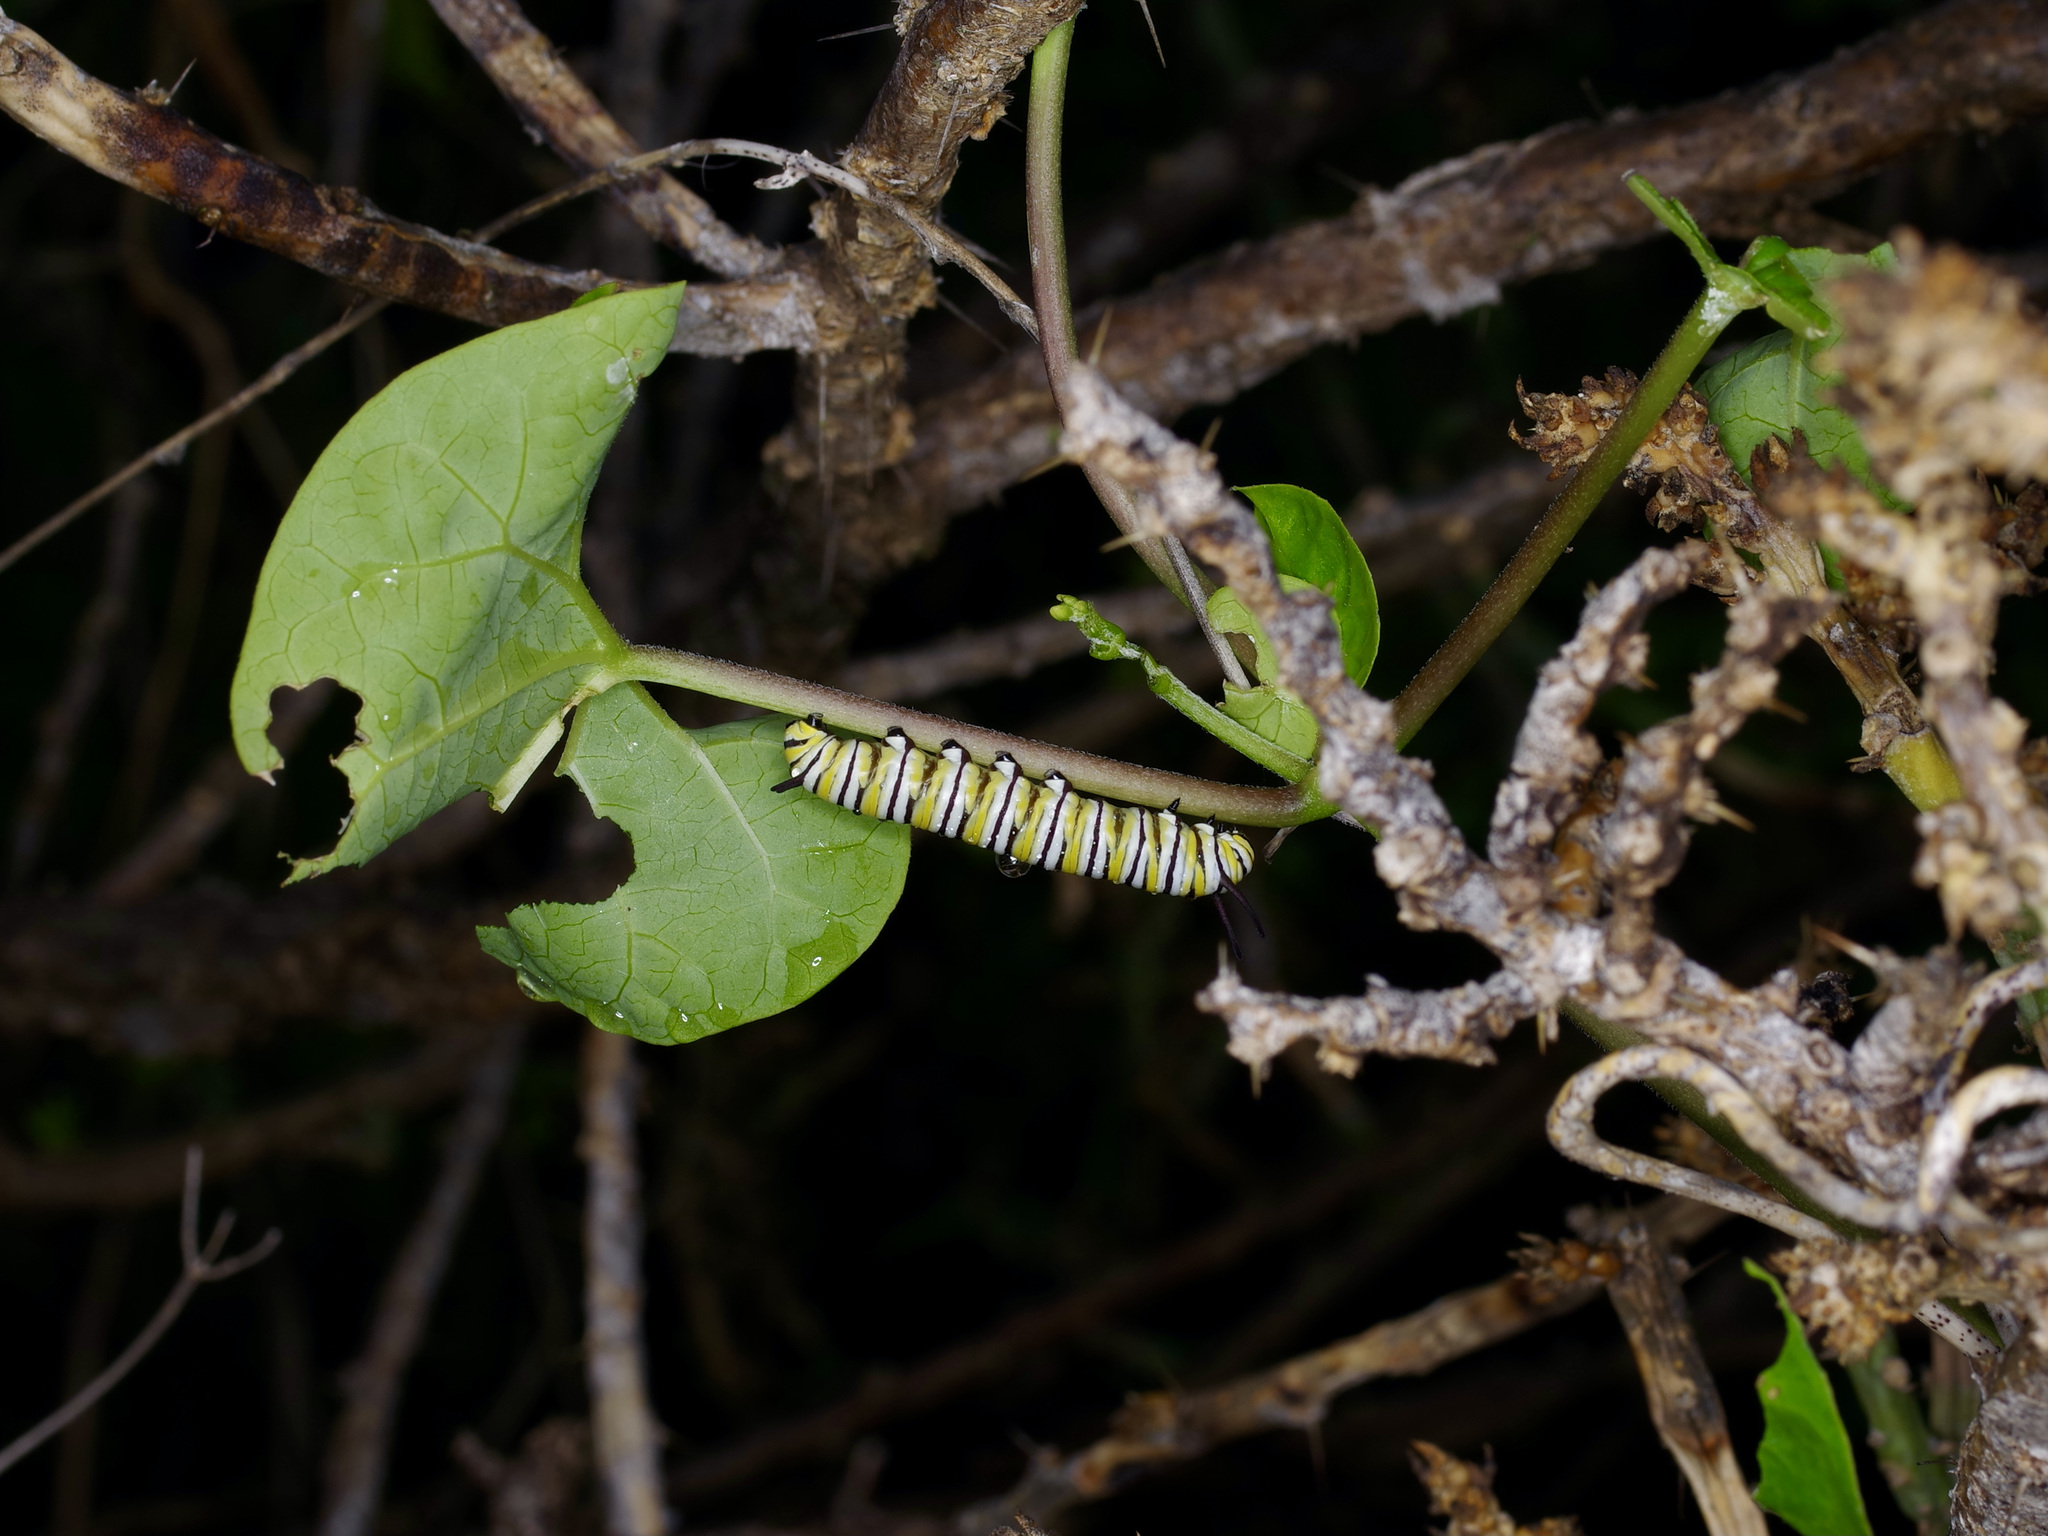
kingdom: Animalia
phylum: Arthropoda
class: Insecta
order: Lepidoptera
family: Nymphalidae
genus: Danaus
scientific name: Danaus plexippus
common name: Monarch
